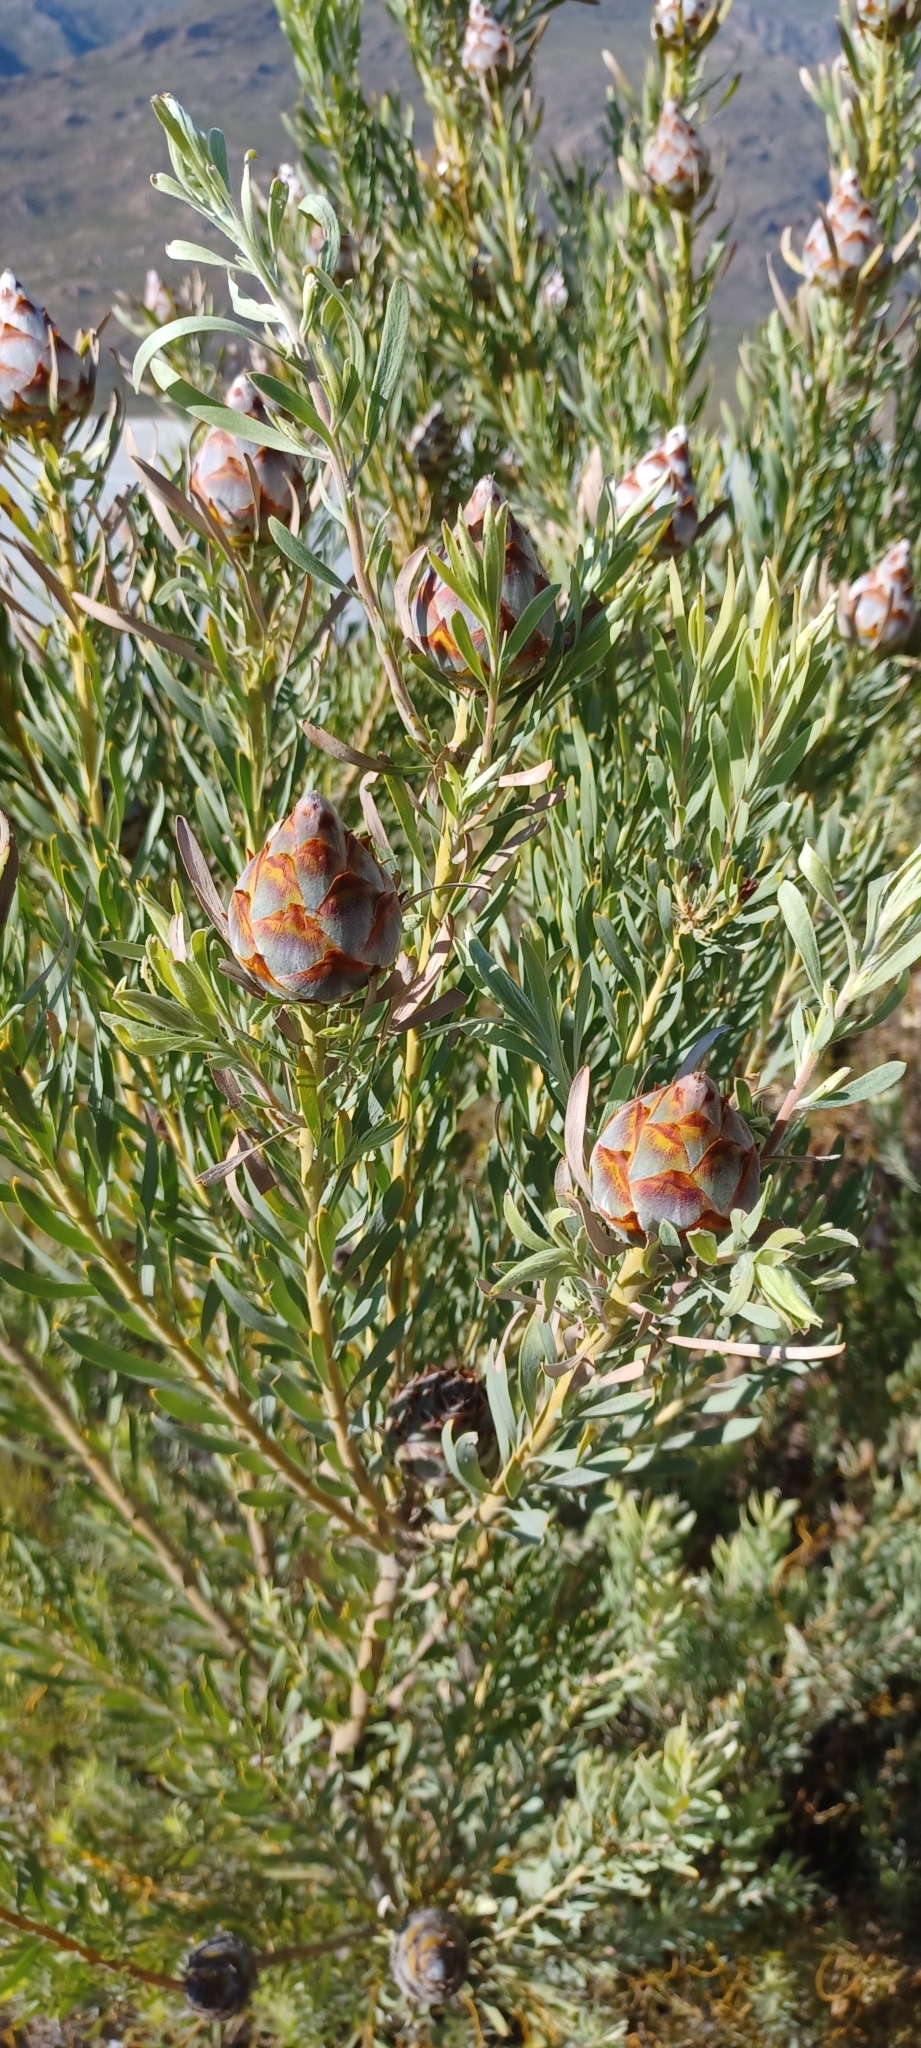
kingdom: Plantae
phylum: Tracheophyta
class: Magnoliopsida
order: Proteales
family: Proteaceae
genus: Leucadendron
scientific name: Leucadendron rubrum
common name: Spinning top
